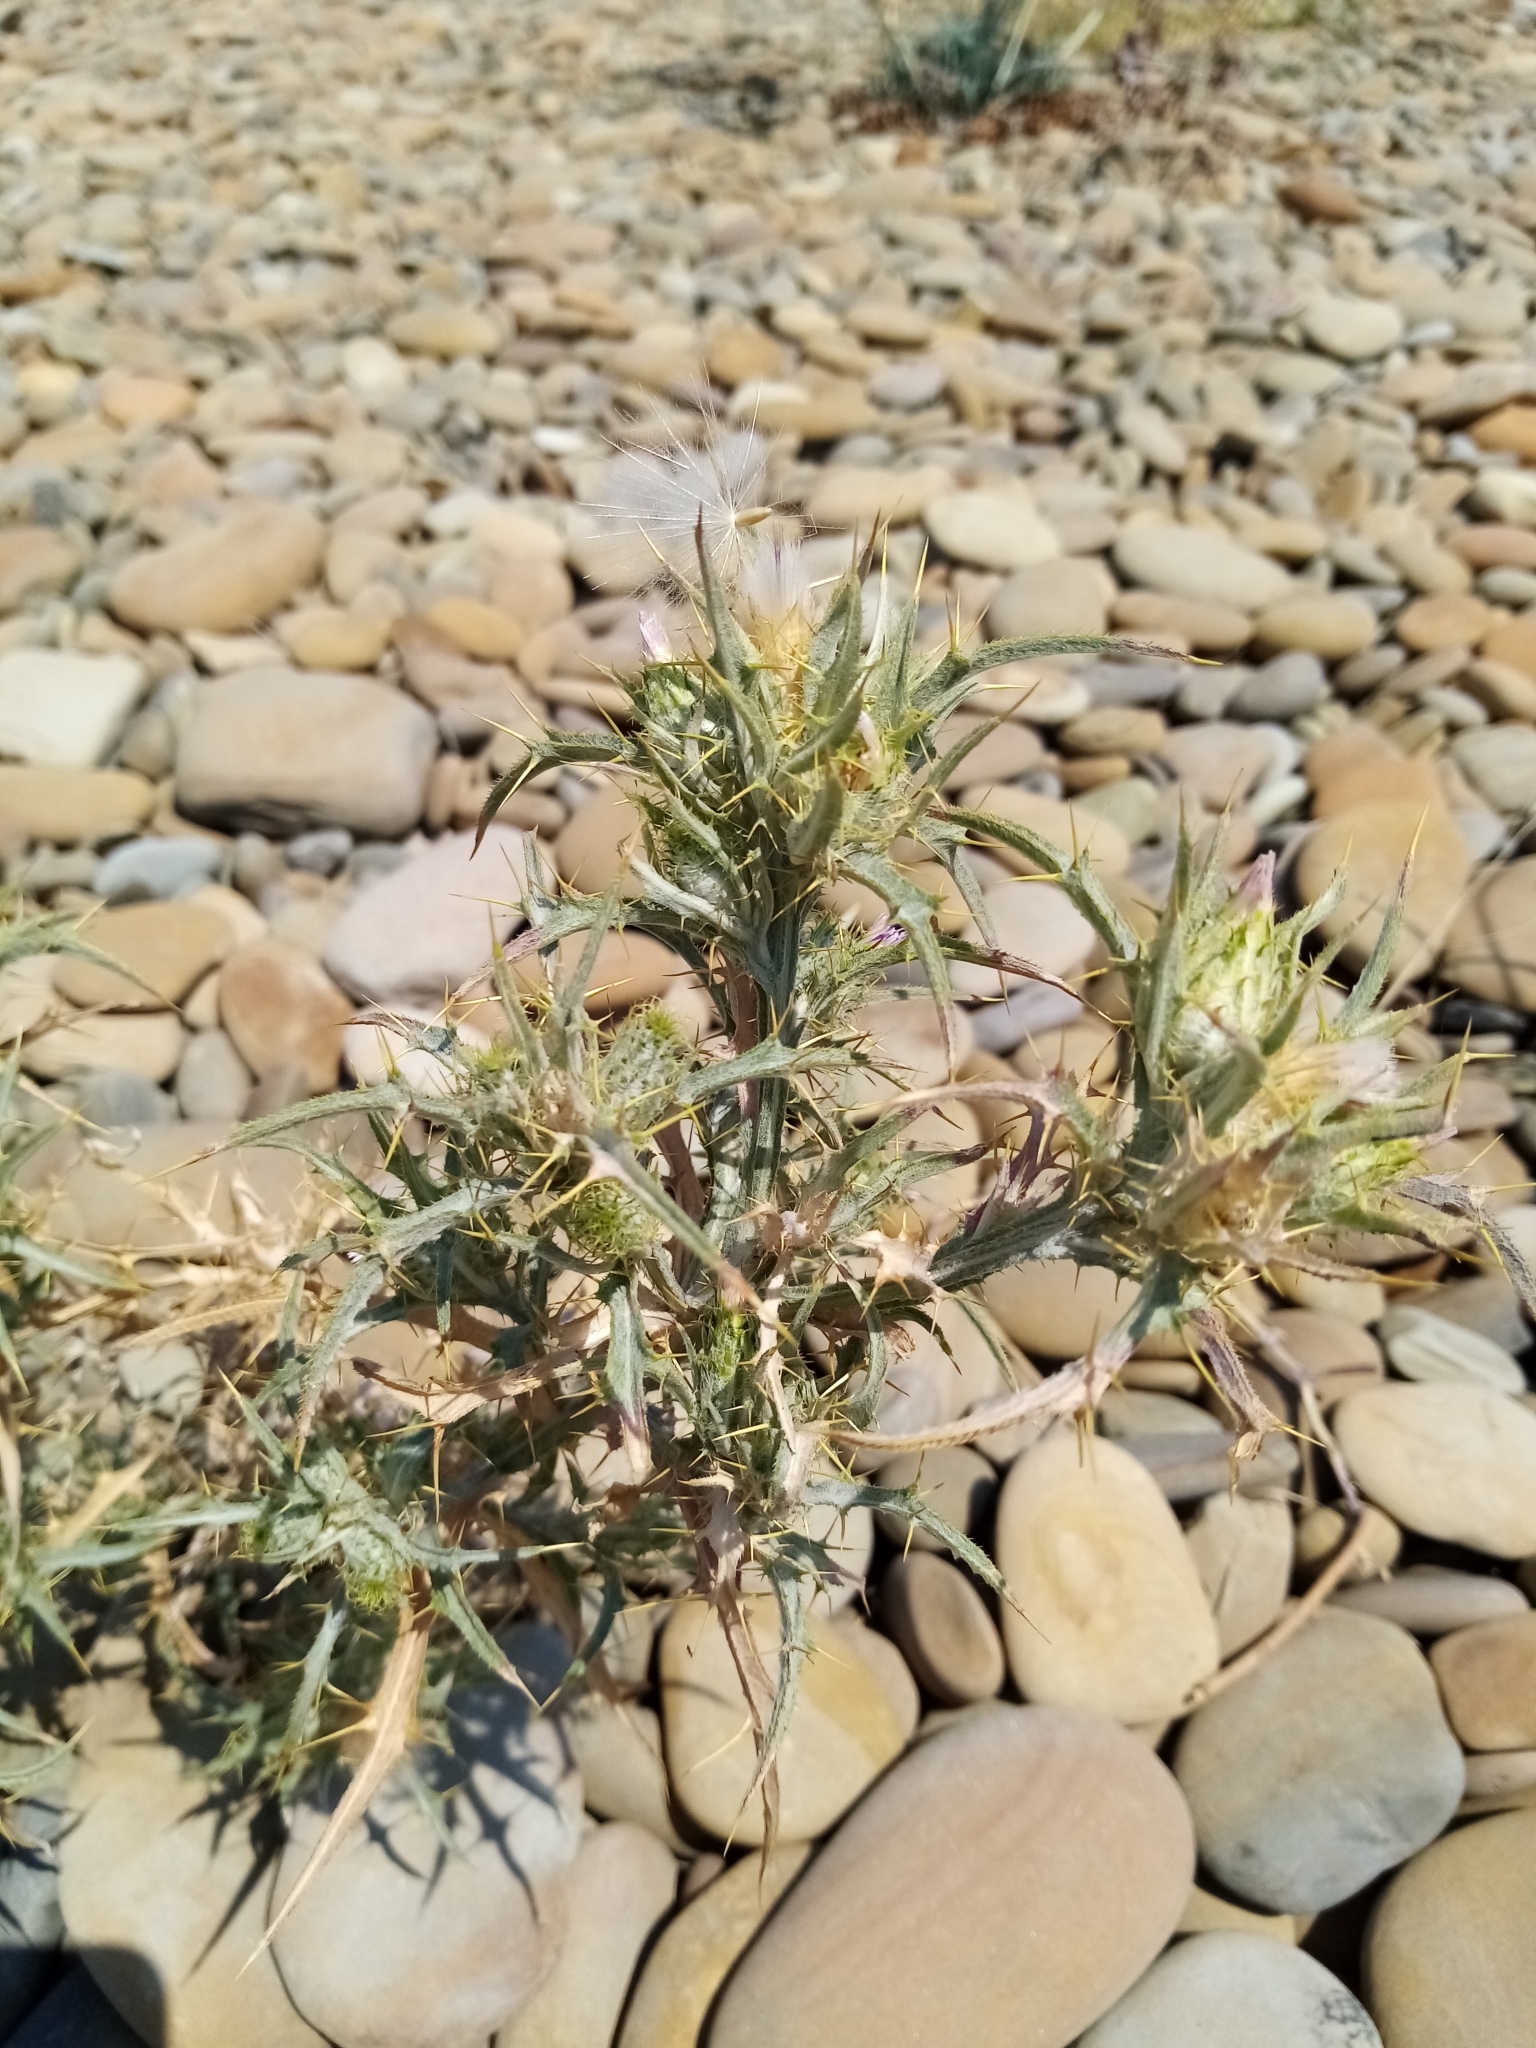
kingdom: Plantae
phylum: Tracheophyta
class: Magnoliopsida
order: Asterales
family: Asteraceae
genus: Picnomon
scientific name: Picnomon acarna
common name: Soldier thistle
